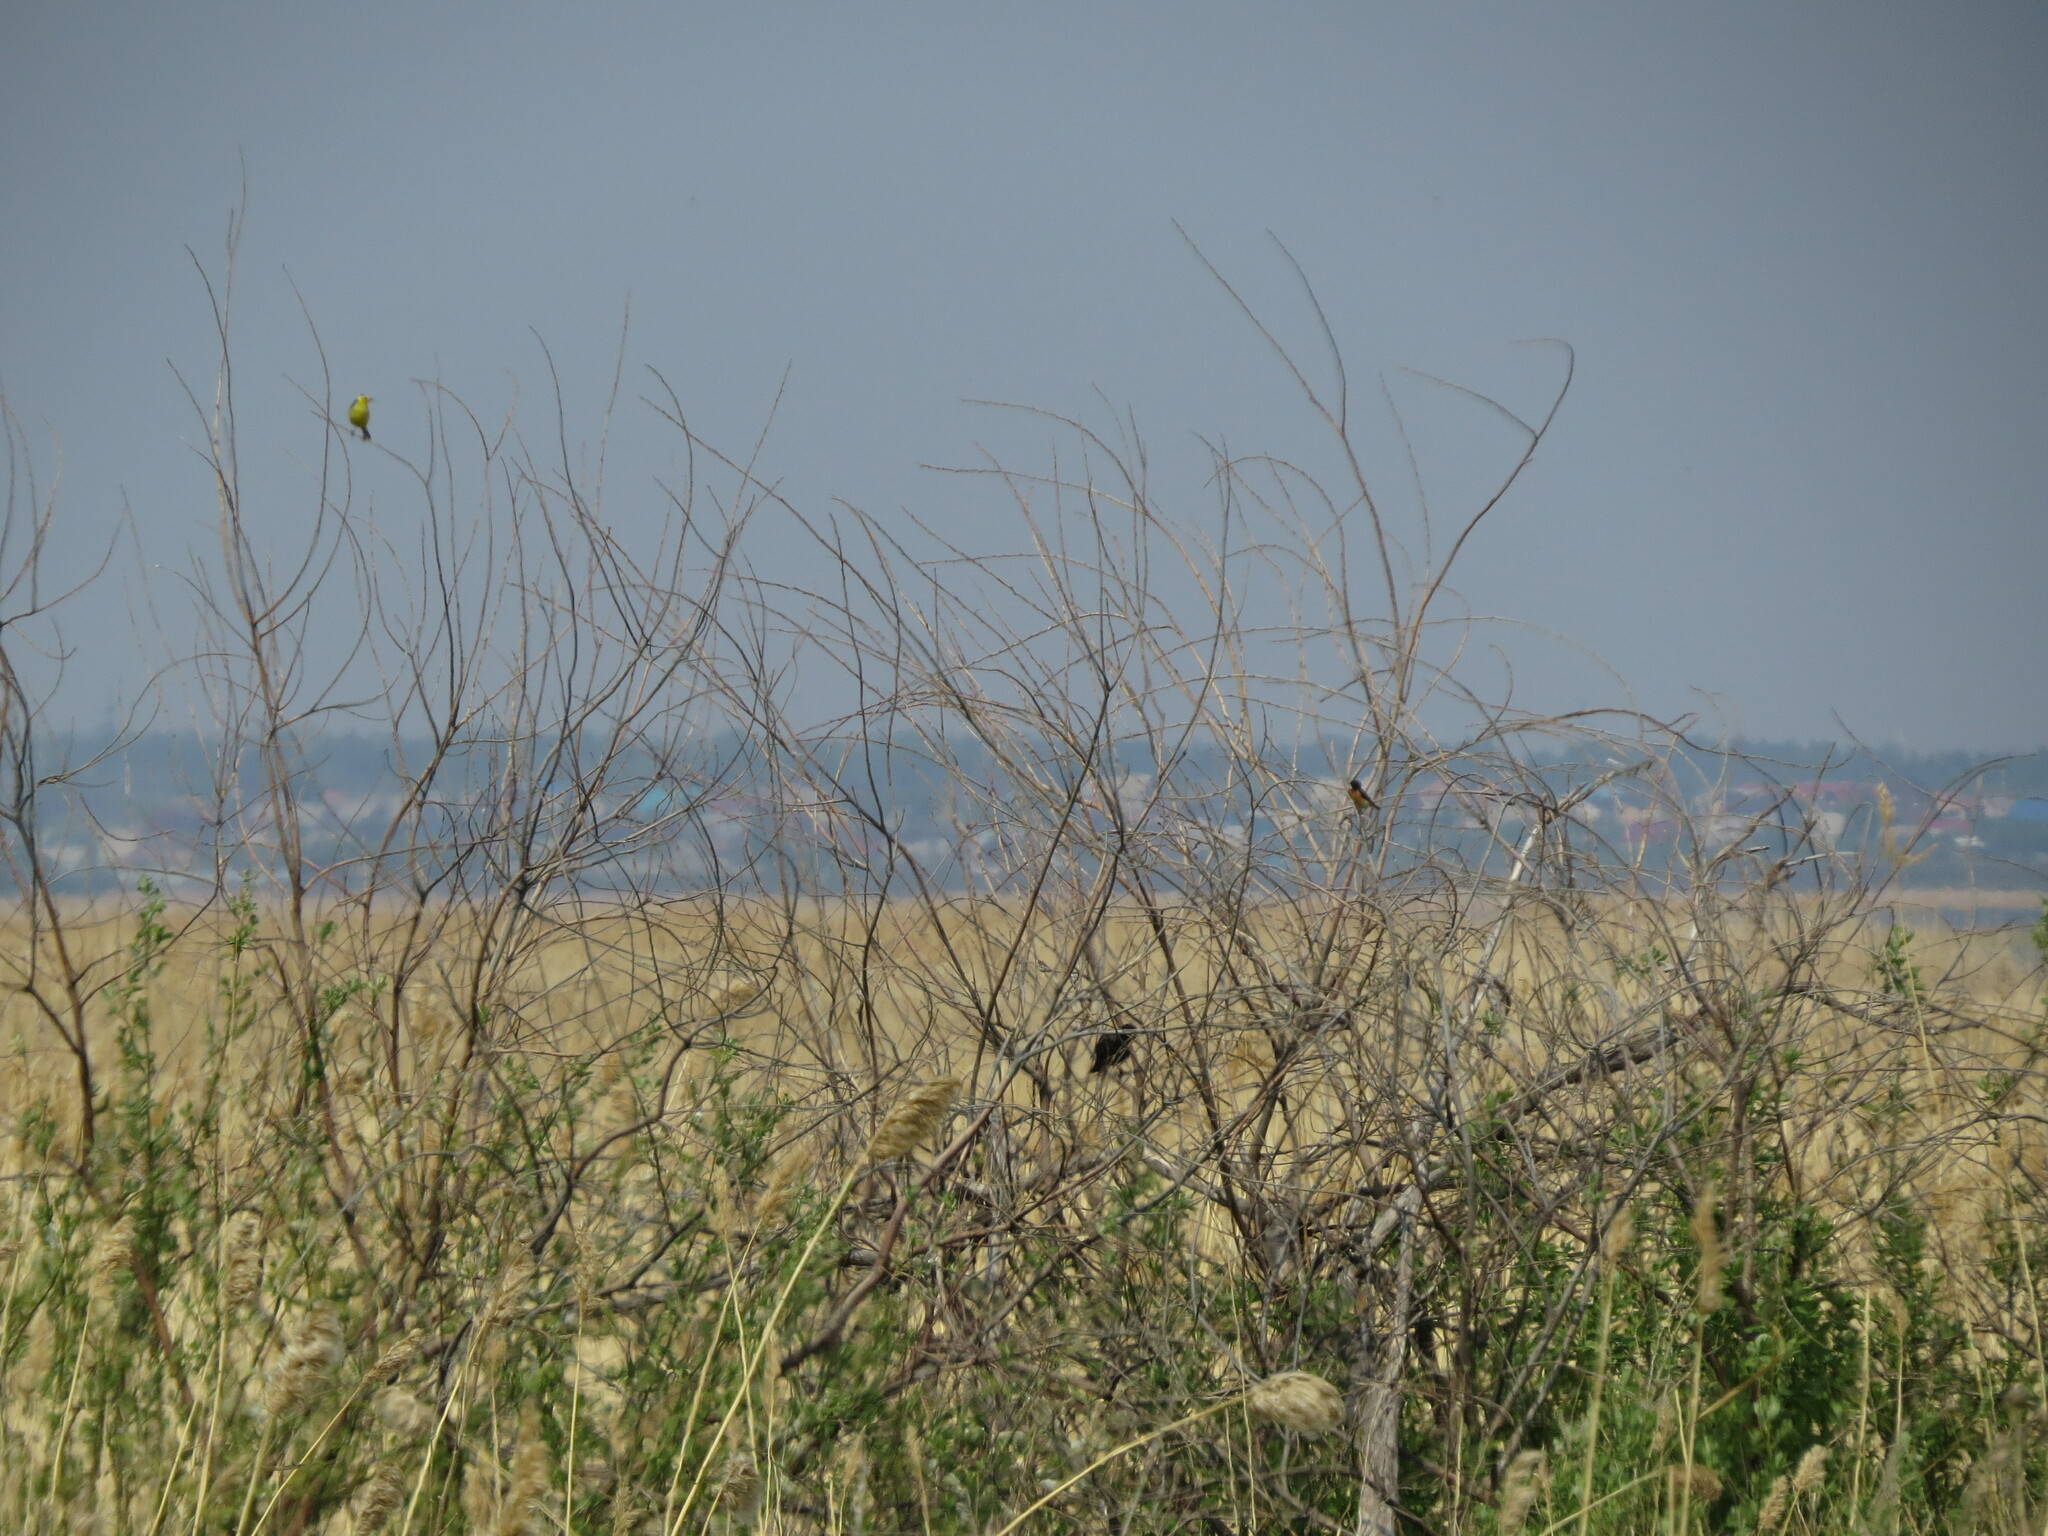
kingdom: Animalia
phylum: Chordata
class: Aves
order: Passeriformes
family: Motacillidae
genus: Motacilla
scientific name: Motacilla citreola
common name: Citrine wagtail
